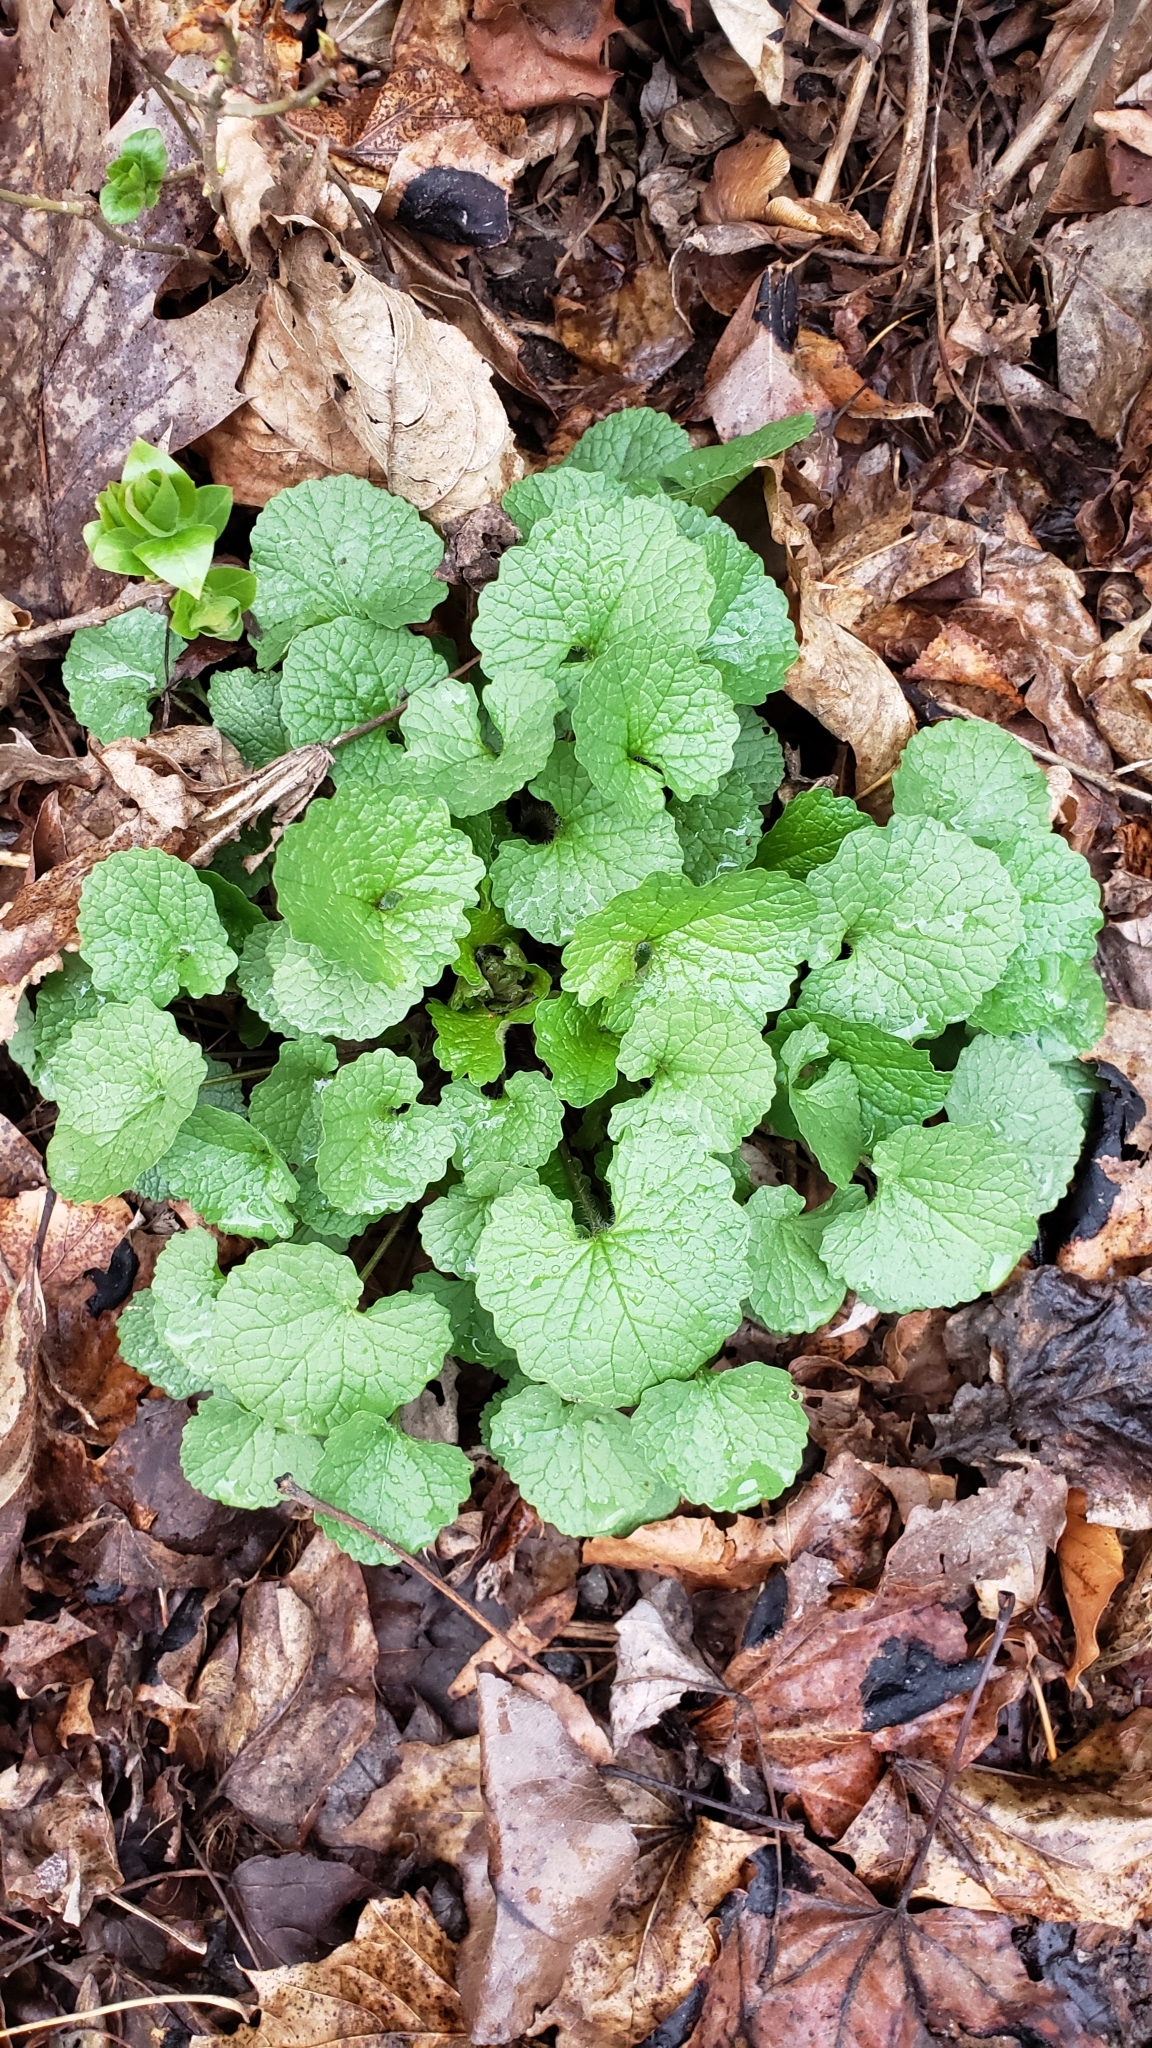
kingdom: Plantae
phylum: Tracheophyta
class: Magnoliopsida
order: Brassicales
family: Brassicaceae
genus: Alliaria
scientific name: Alliaria petiolata
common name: Garlic mustard
